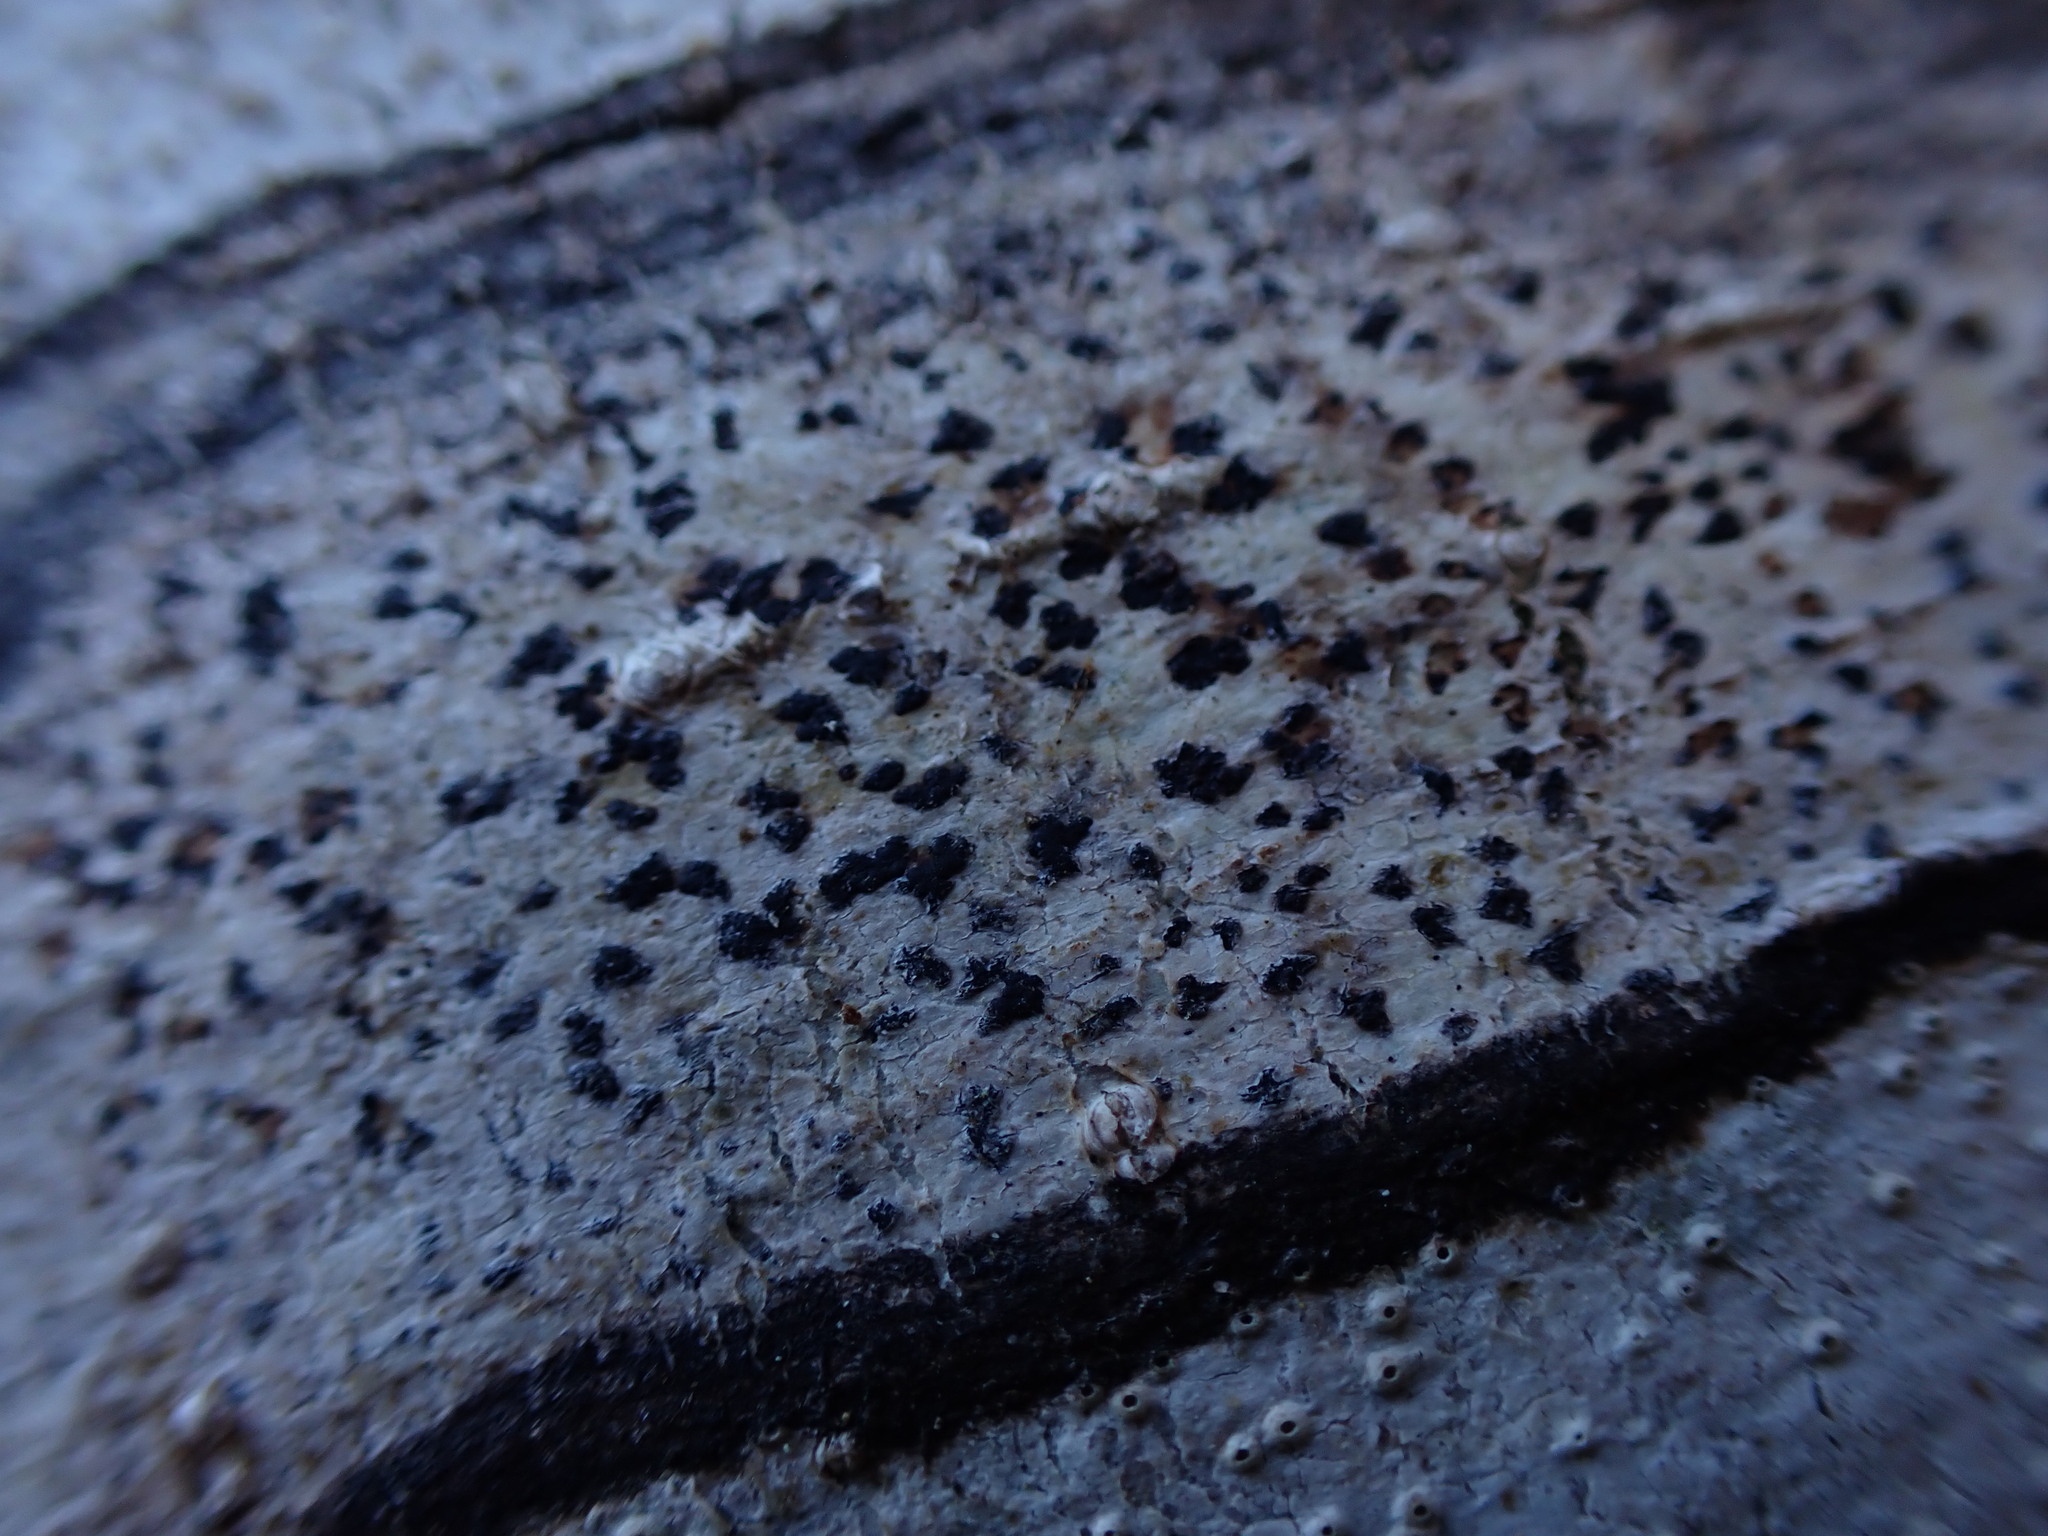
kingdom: Fungi
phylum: Ascomycota
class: Arthoniomycetes
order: Arthoniales
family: Arthoniaceae
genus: Arthonia
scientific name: Arthonia radiata
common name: Asterisk lichen
